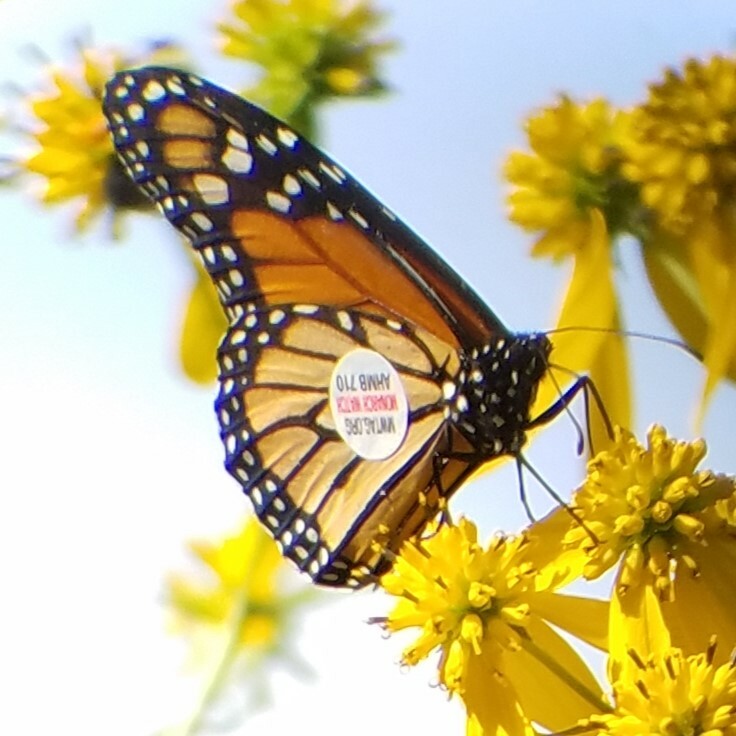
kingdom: Animalia
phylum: Arthropoda
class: Insecta
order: Lepidoptera
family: Nymphalidae
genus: Danaus
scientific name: Danaus plexippus
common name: Monarch
